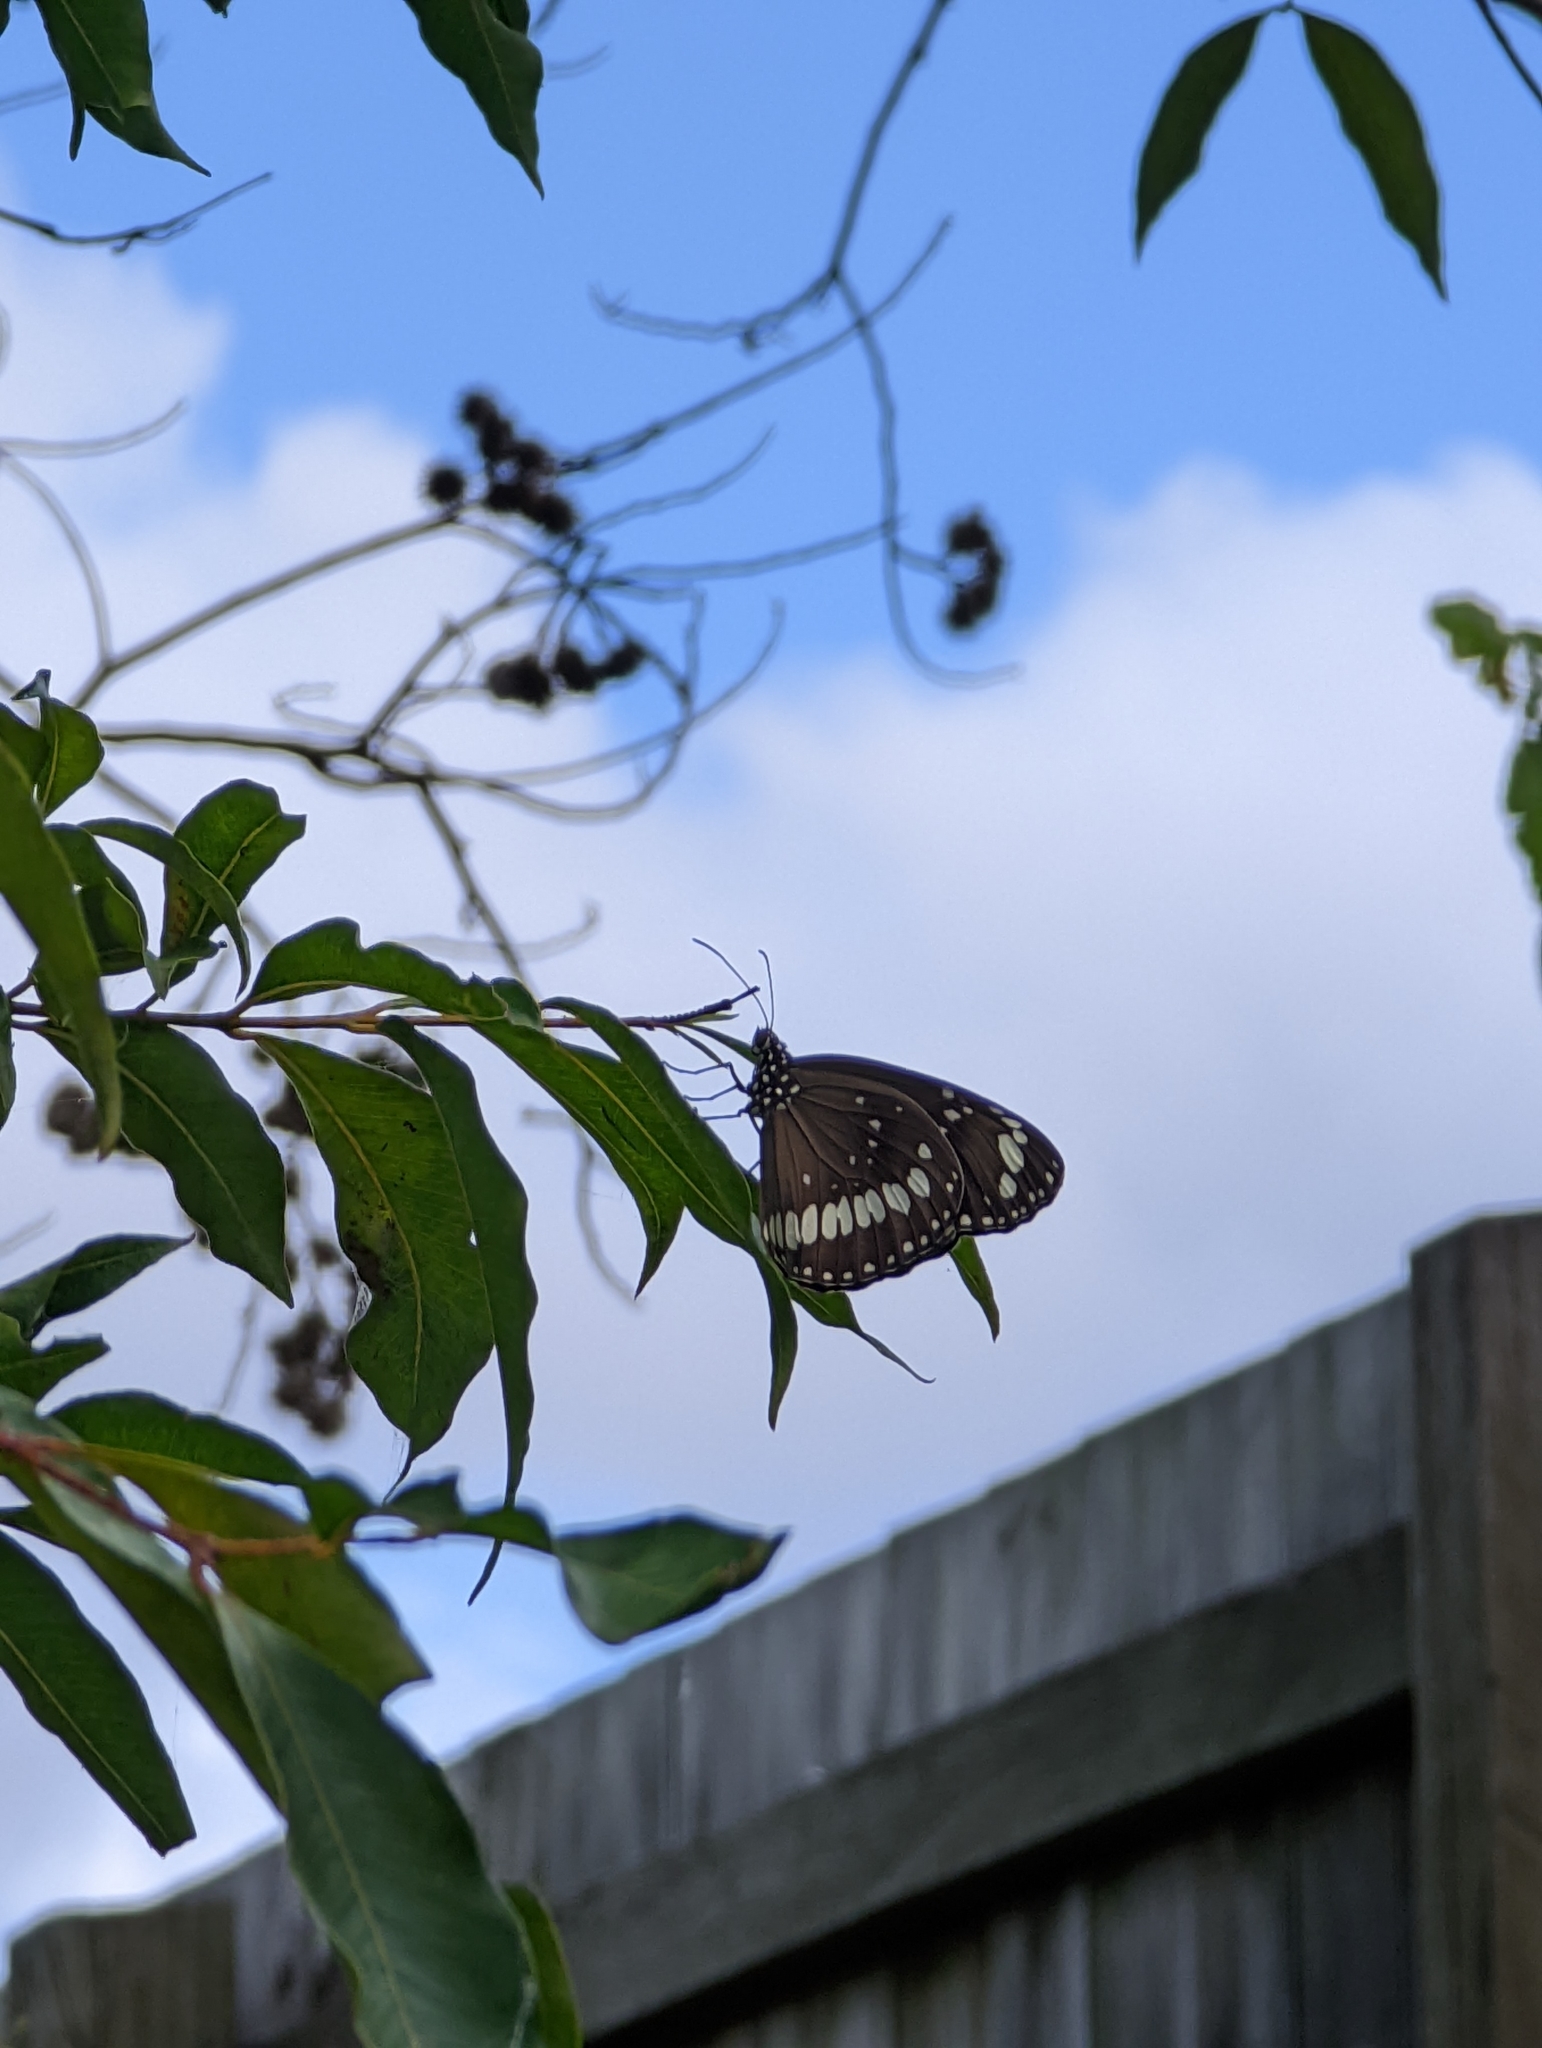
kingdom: Animalia
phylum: Arthropoda
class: Insecta
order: Lepidoptera
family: Nymphalidae
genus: Euploea
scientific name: Euploea core
